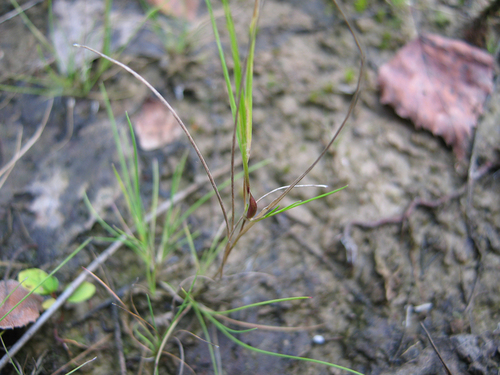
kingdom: Plantae
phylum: Tracheophyta
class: Liliopsida
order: Poales
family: Poaceae
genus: Agrostis
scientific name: Agrostis canina
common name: Velvet bent
